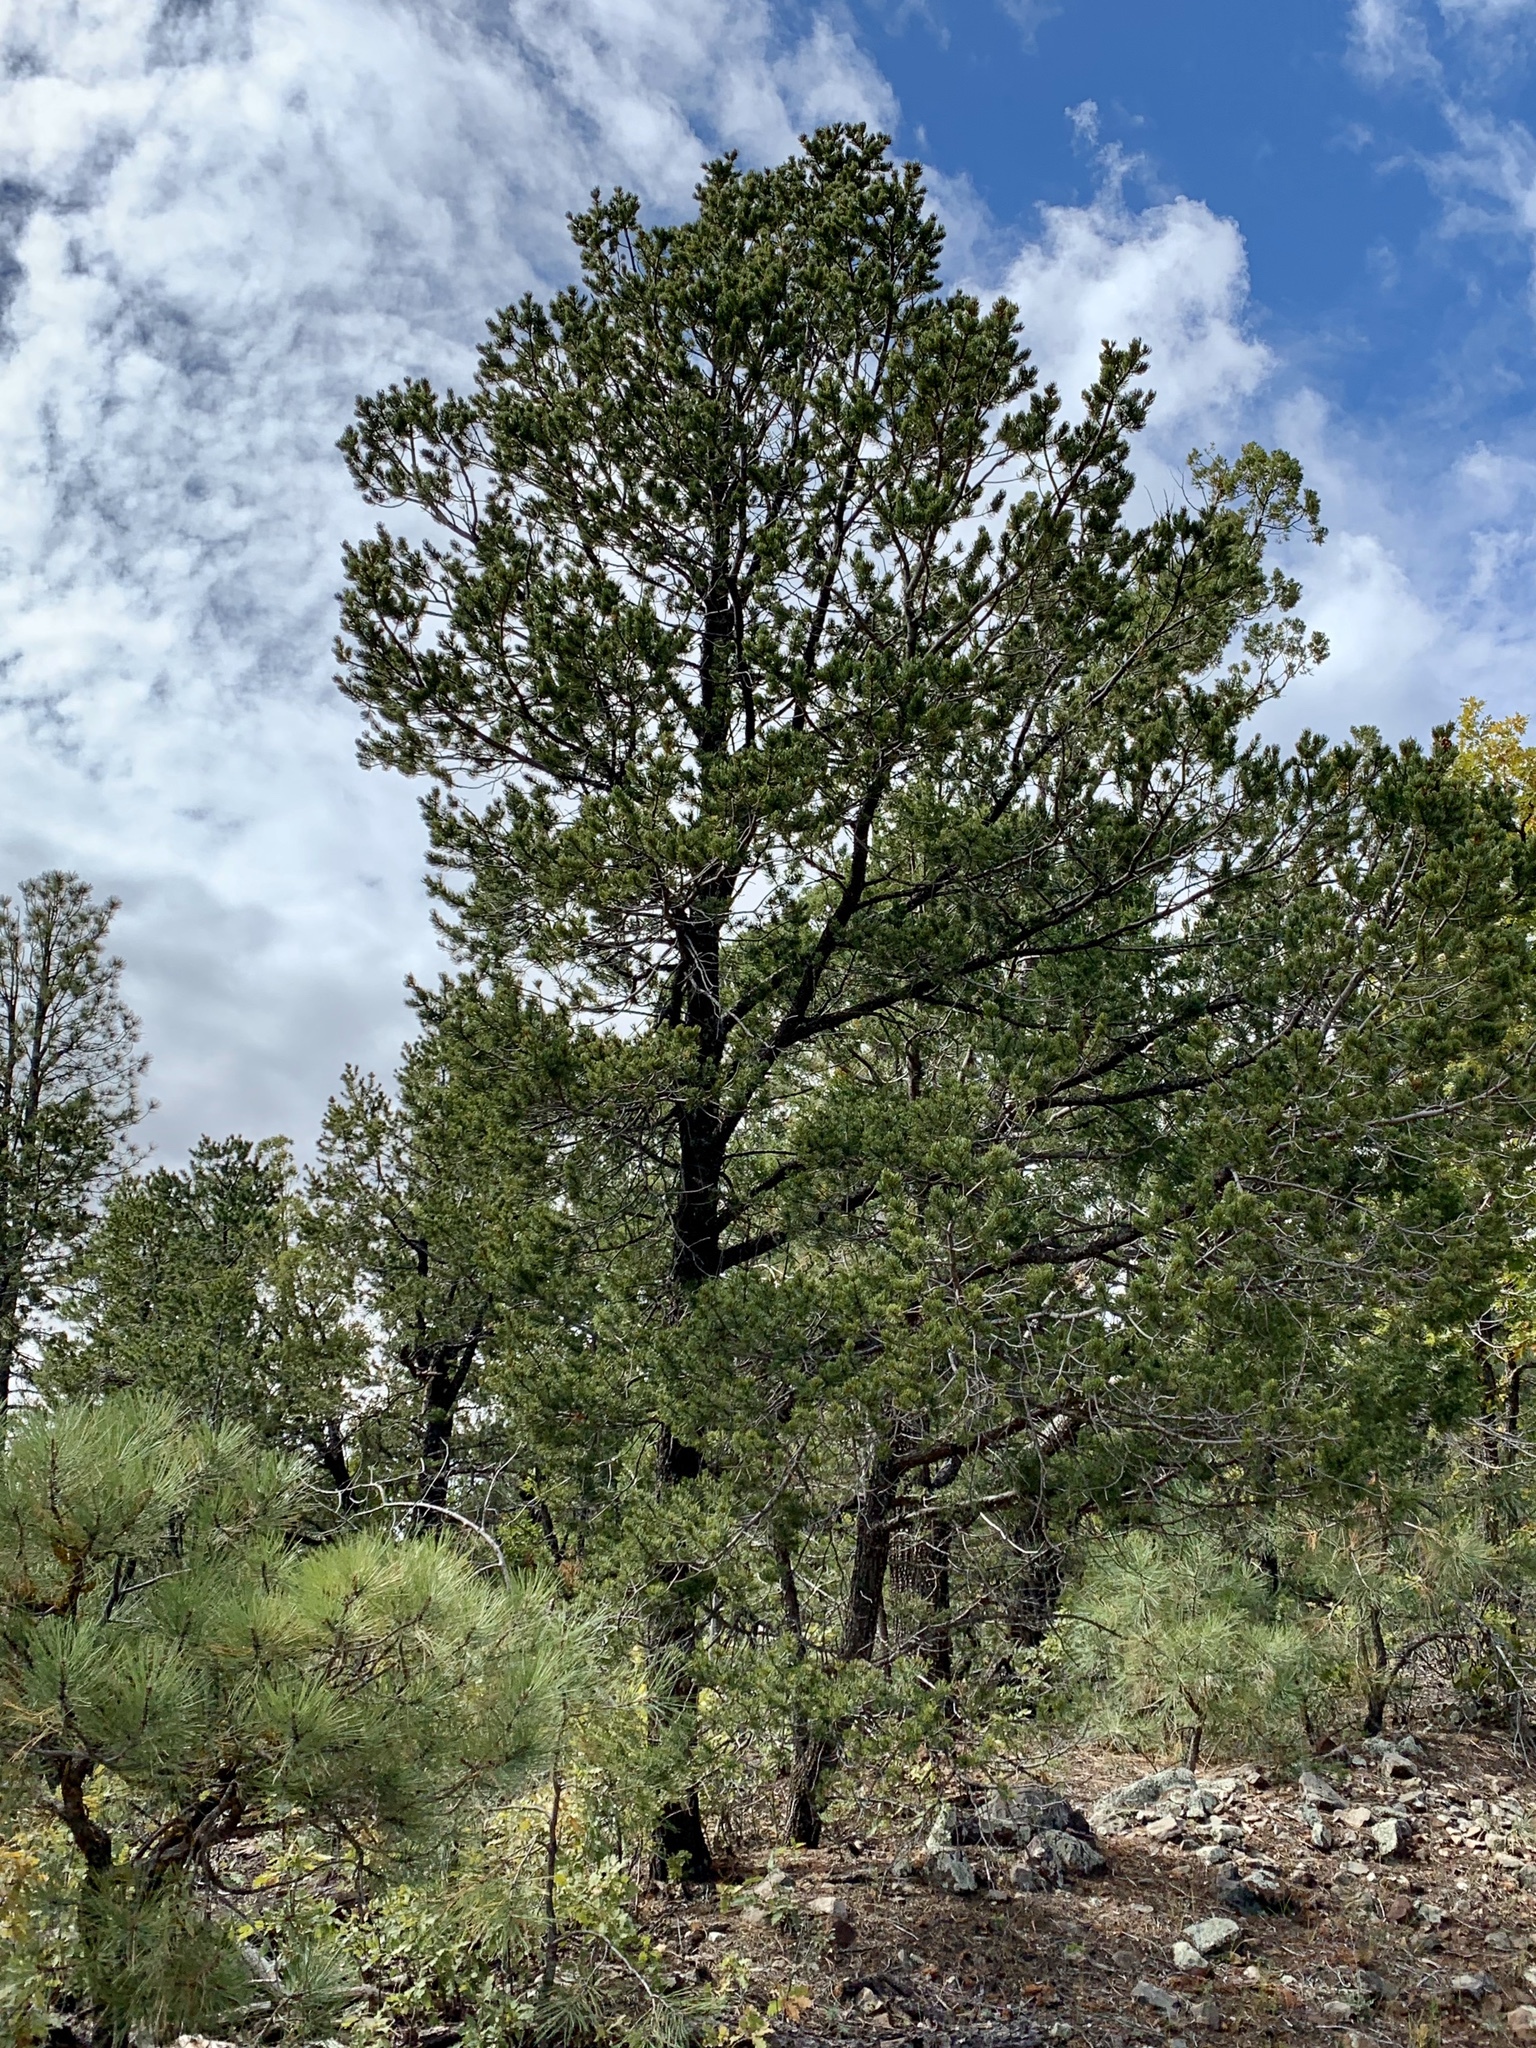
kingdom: Plantae
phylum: Tracheophyta
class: Pinopsida
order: Pinales
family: Pinaceae
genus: Pinus
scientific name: Pinus edulis
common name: Colorado pinyon
